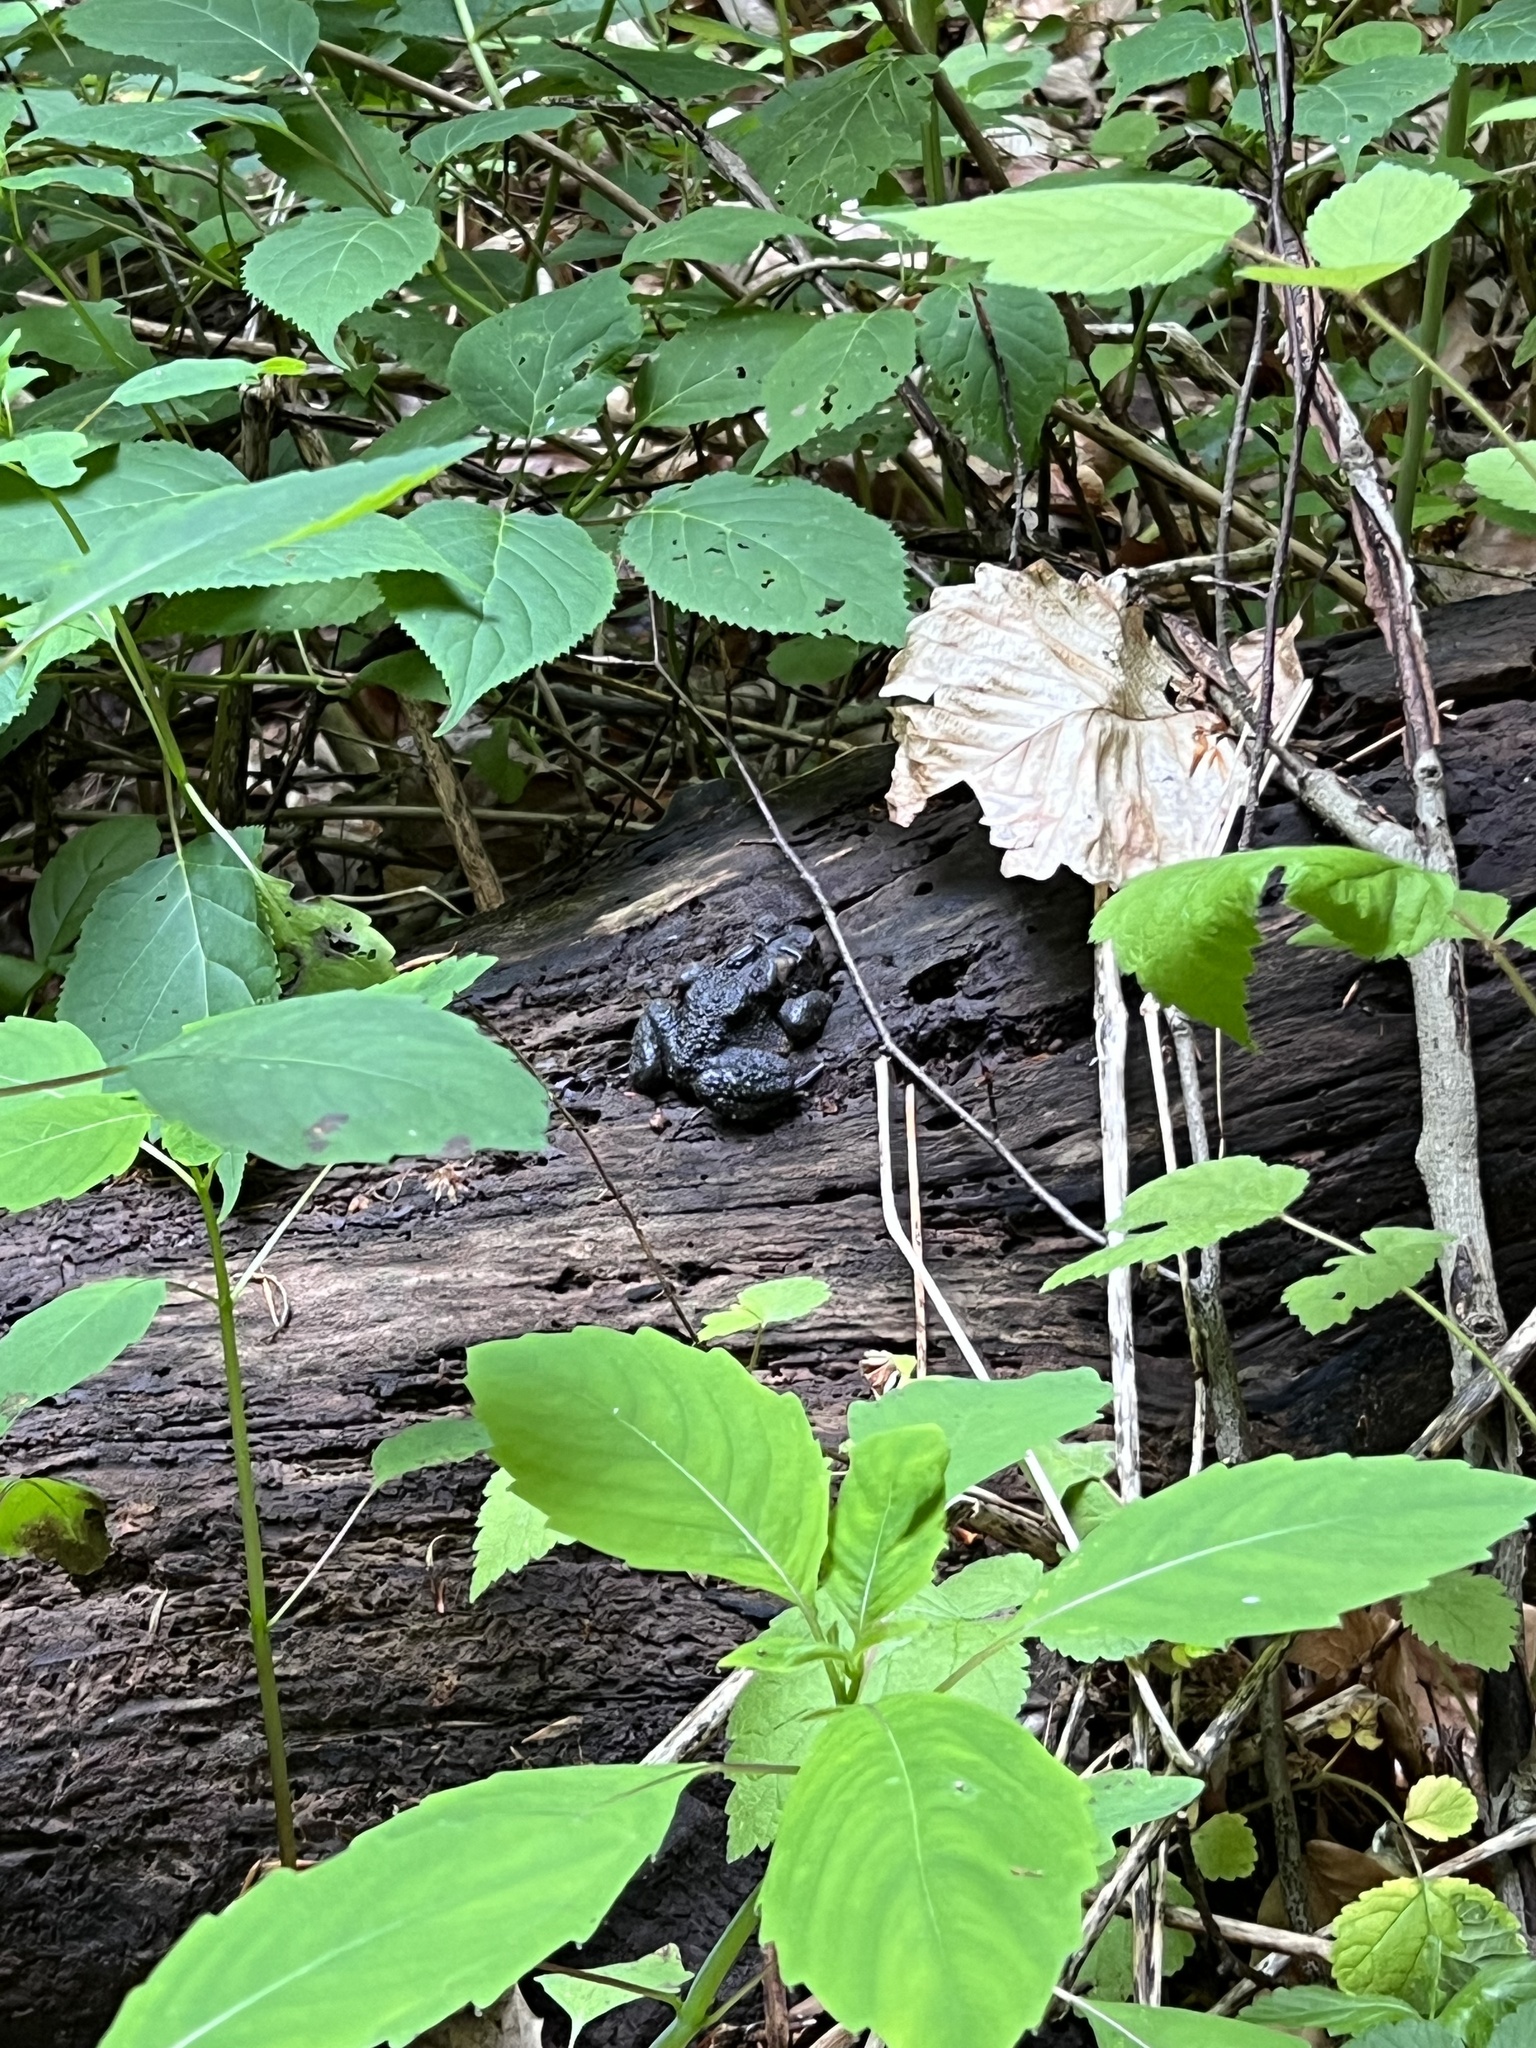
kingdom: Animalia
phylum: Chordata
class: Amphibia
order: Anura
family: Bufonidae
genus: Anaxyrus
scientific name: Anaxyrus americanus
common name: American toad
